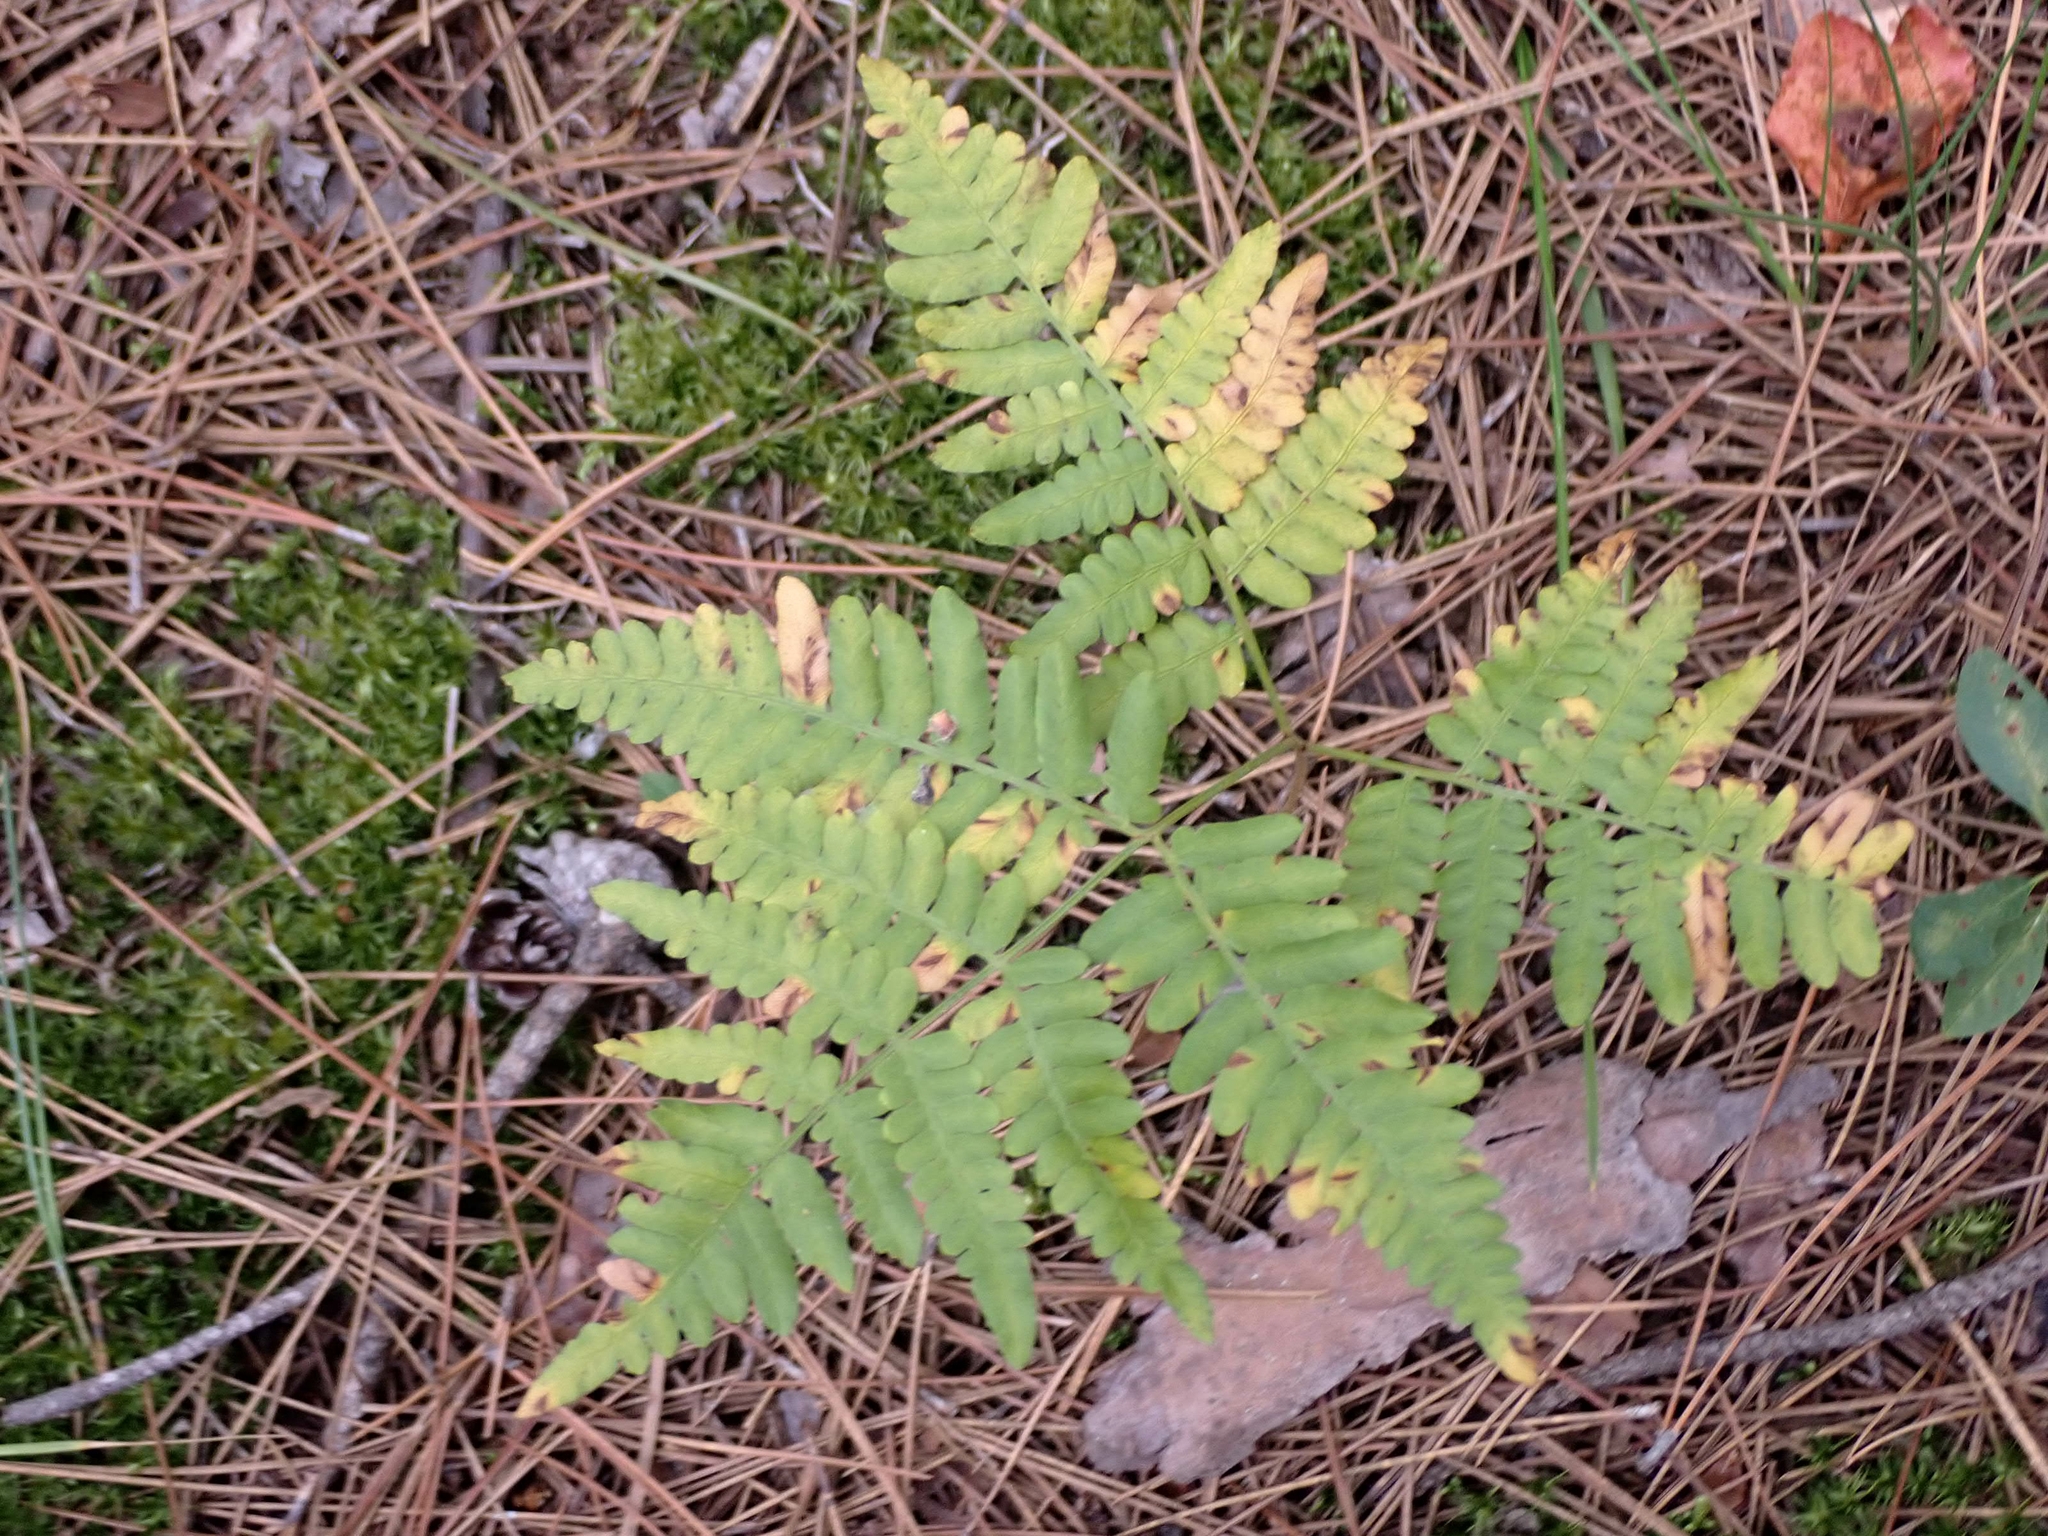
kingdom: Plantae
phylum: Tracheophyta
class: Polypodiopsida
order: Polypodiales
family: Dennstaedtiaceae
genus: Pteridium
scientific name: Pteridium aquilinum
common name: Bracken
